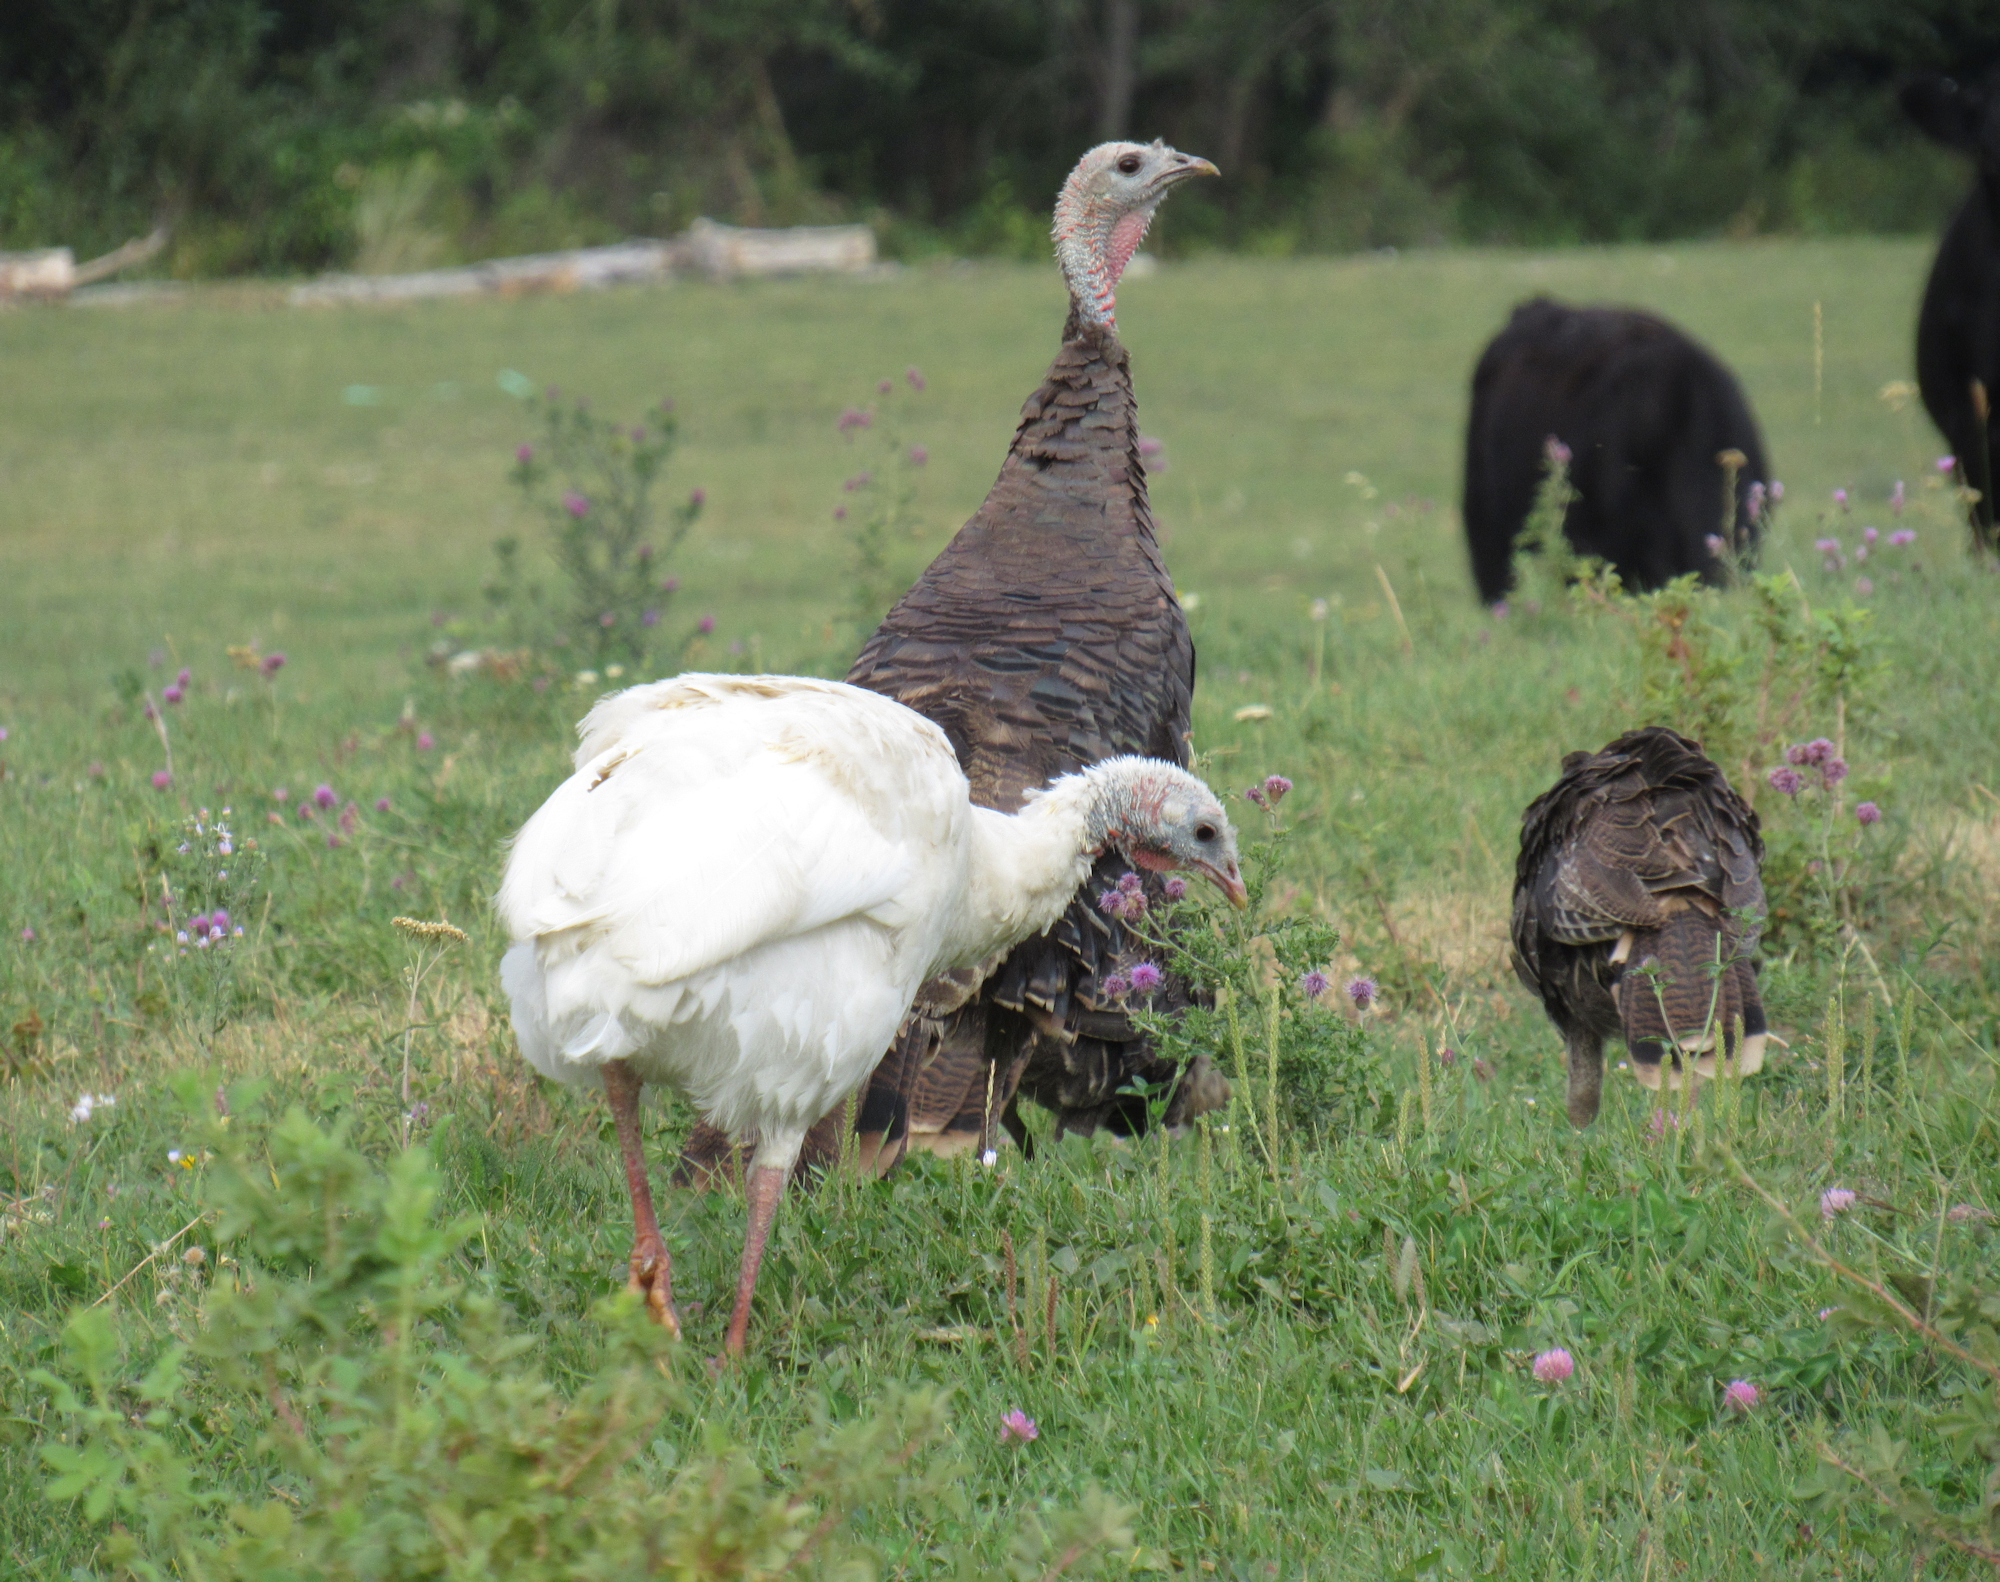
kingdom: Animalia
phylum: Chordata
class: Aves
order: Galliformes
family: Phasianidae
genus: Meleagris
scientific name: Meleagris gallopavo
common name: Wild turkey
